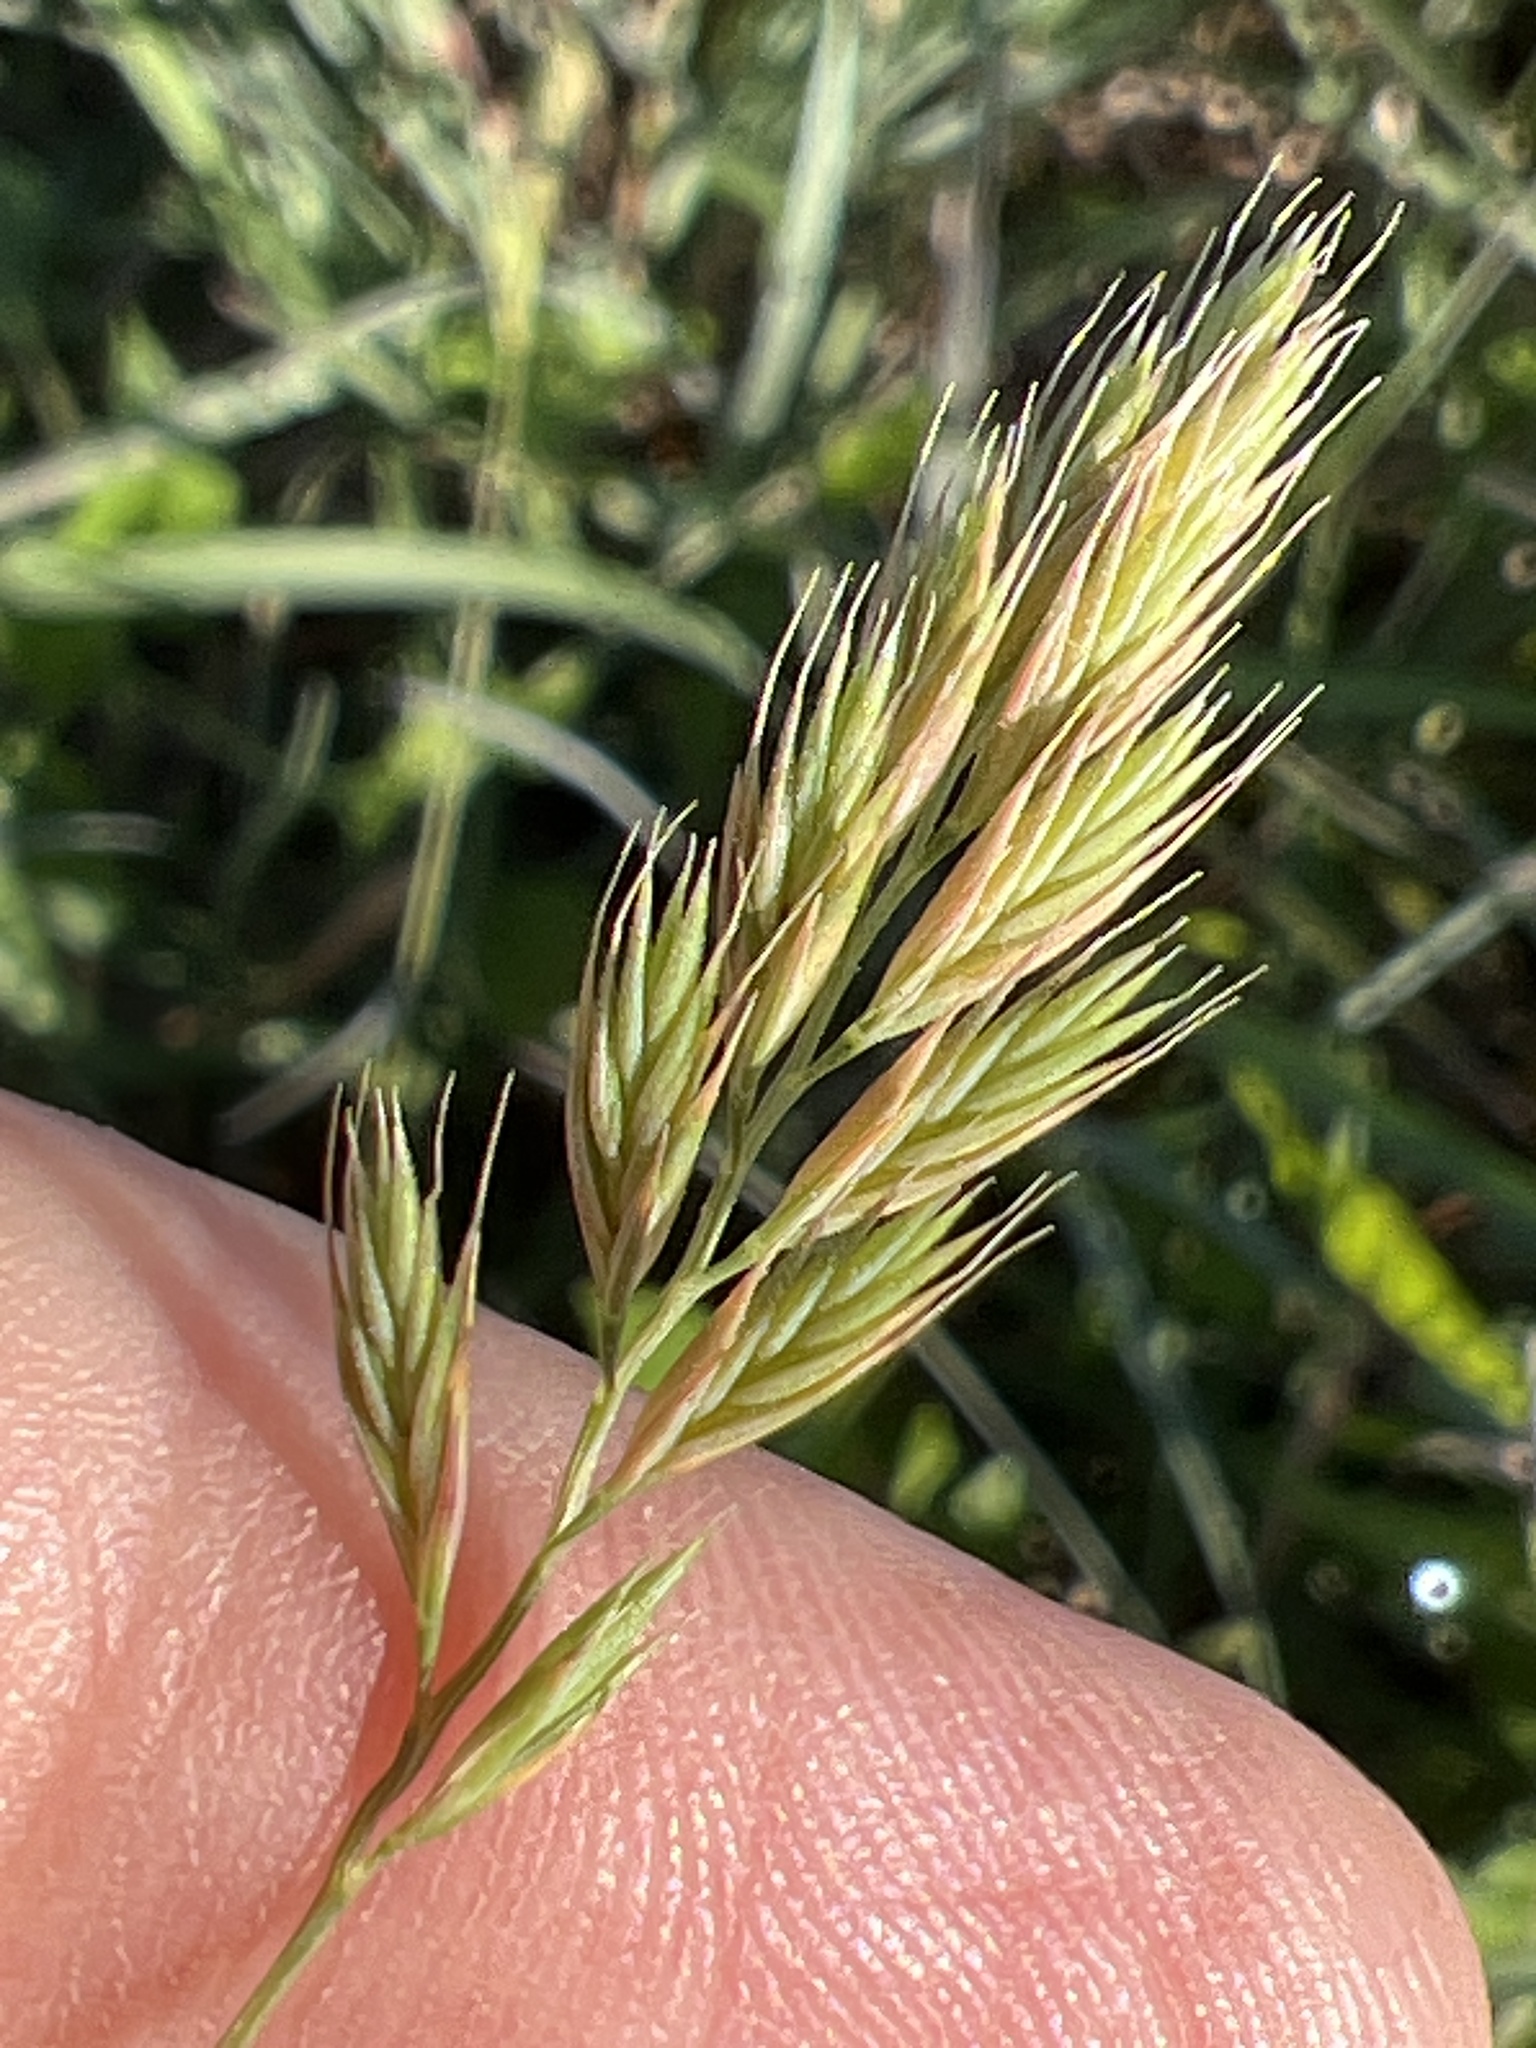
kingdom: Plantae
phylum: Tracheophyta
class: Liliopsida
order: Poales
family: Poaceae
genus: Festuca
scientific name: Festuca octoflora
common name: Sixweeks grass
